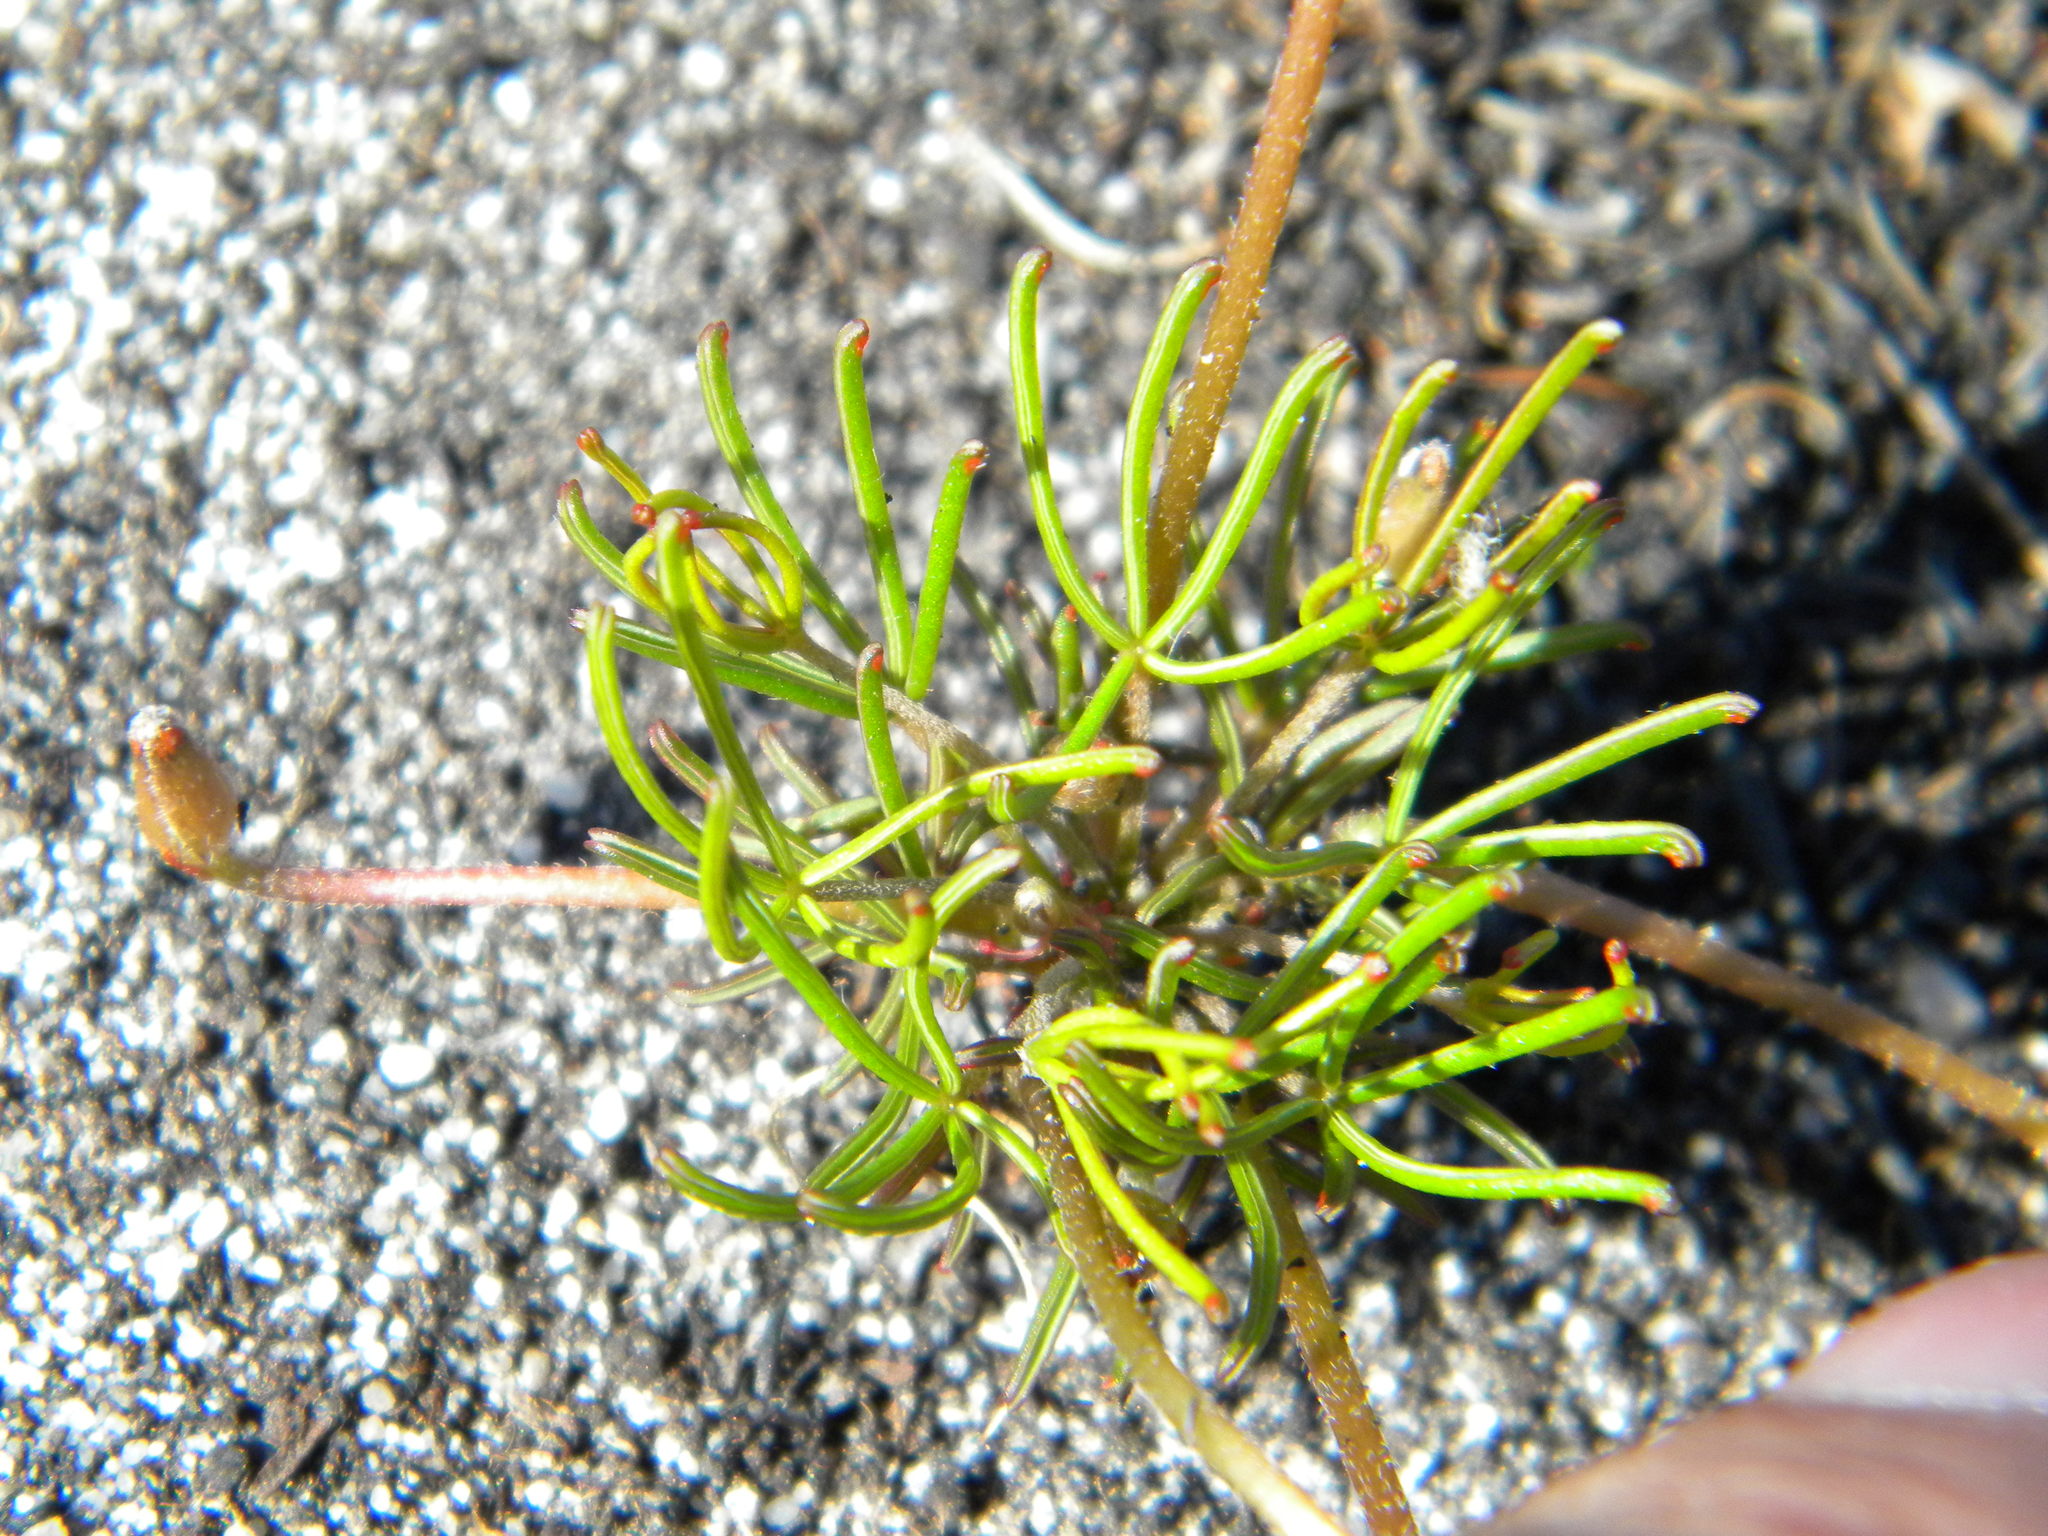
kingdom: Plantae
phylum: Tracheophyta
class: Magnoliopsida
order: Oxalidales
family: Oxalidaceae
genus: Oxalis
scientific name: Oxalis polyphylla
